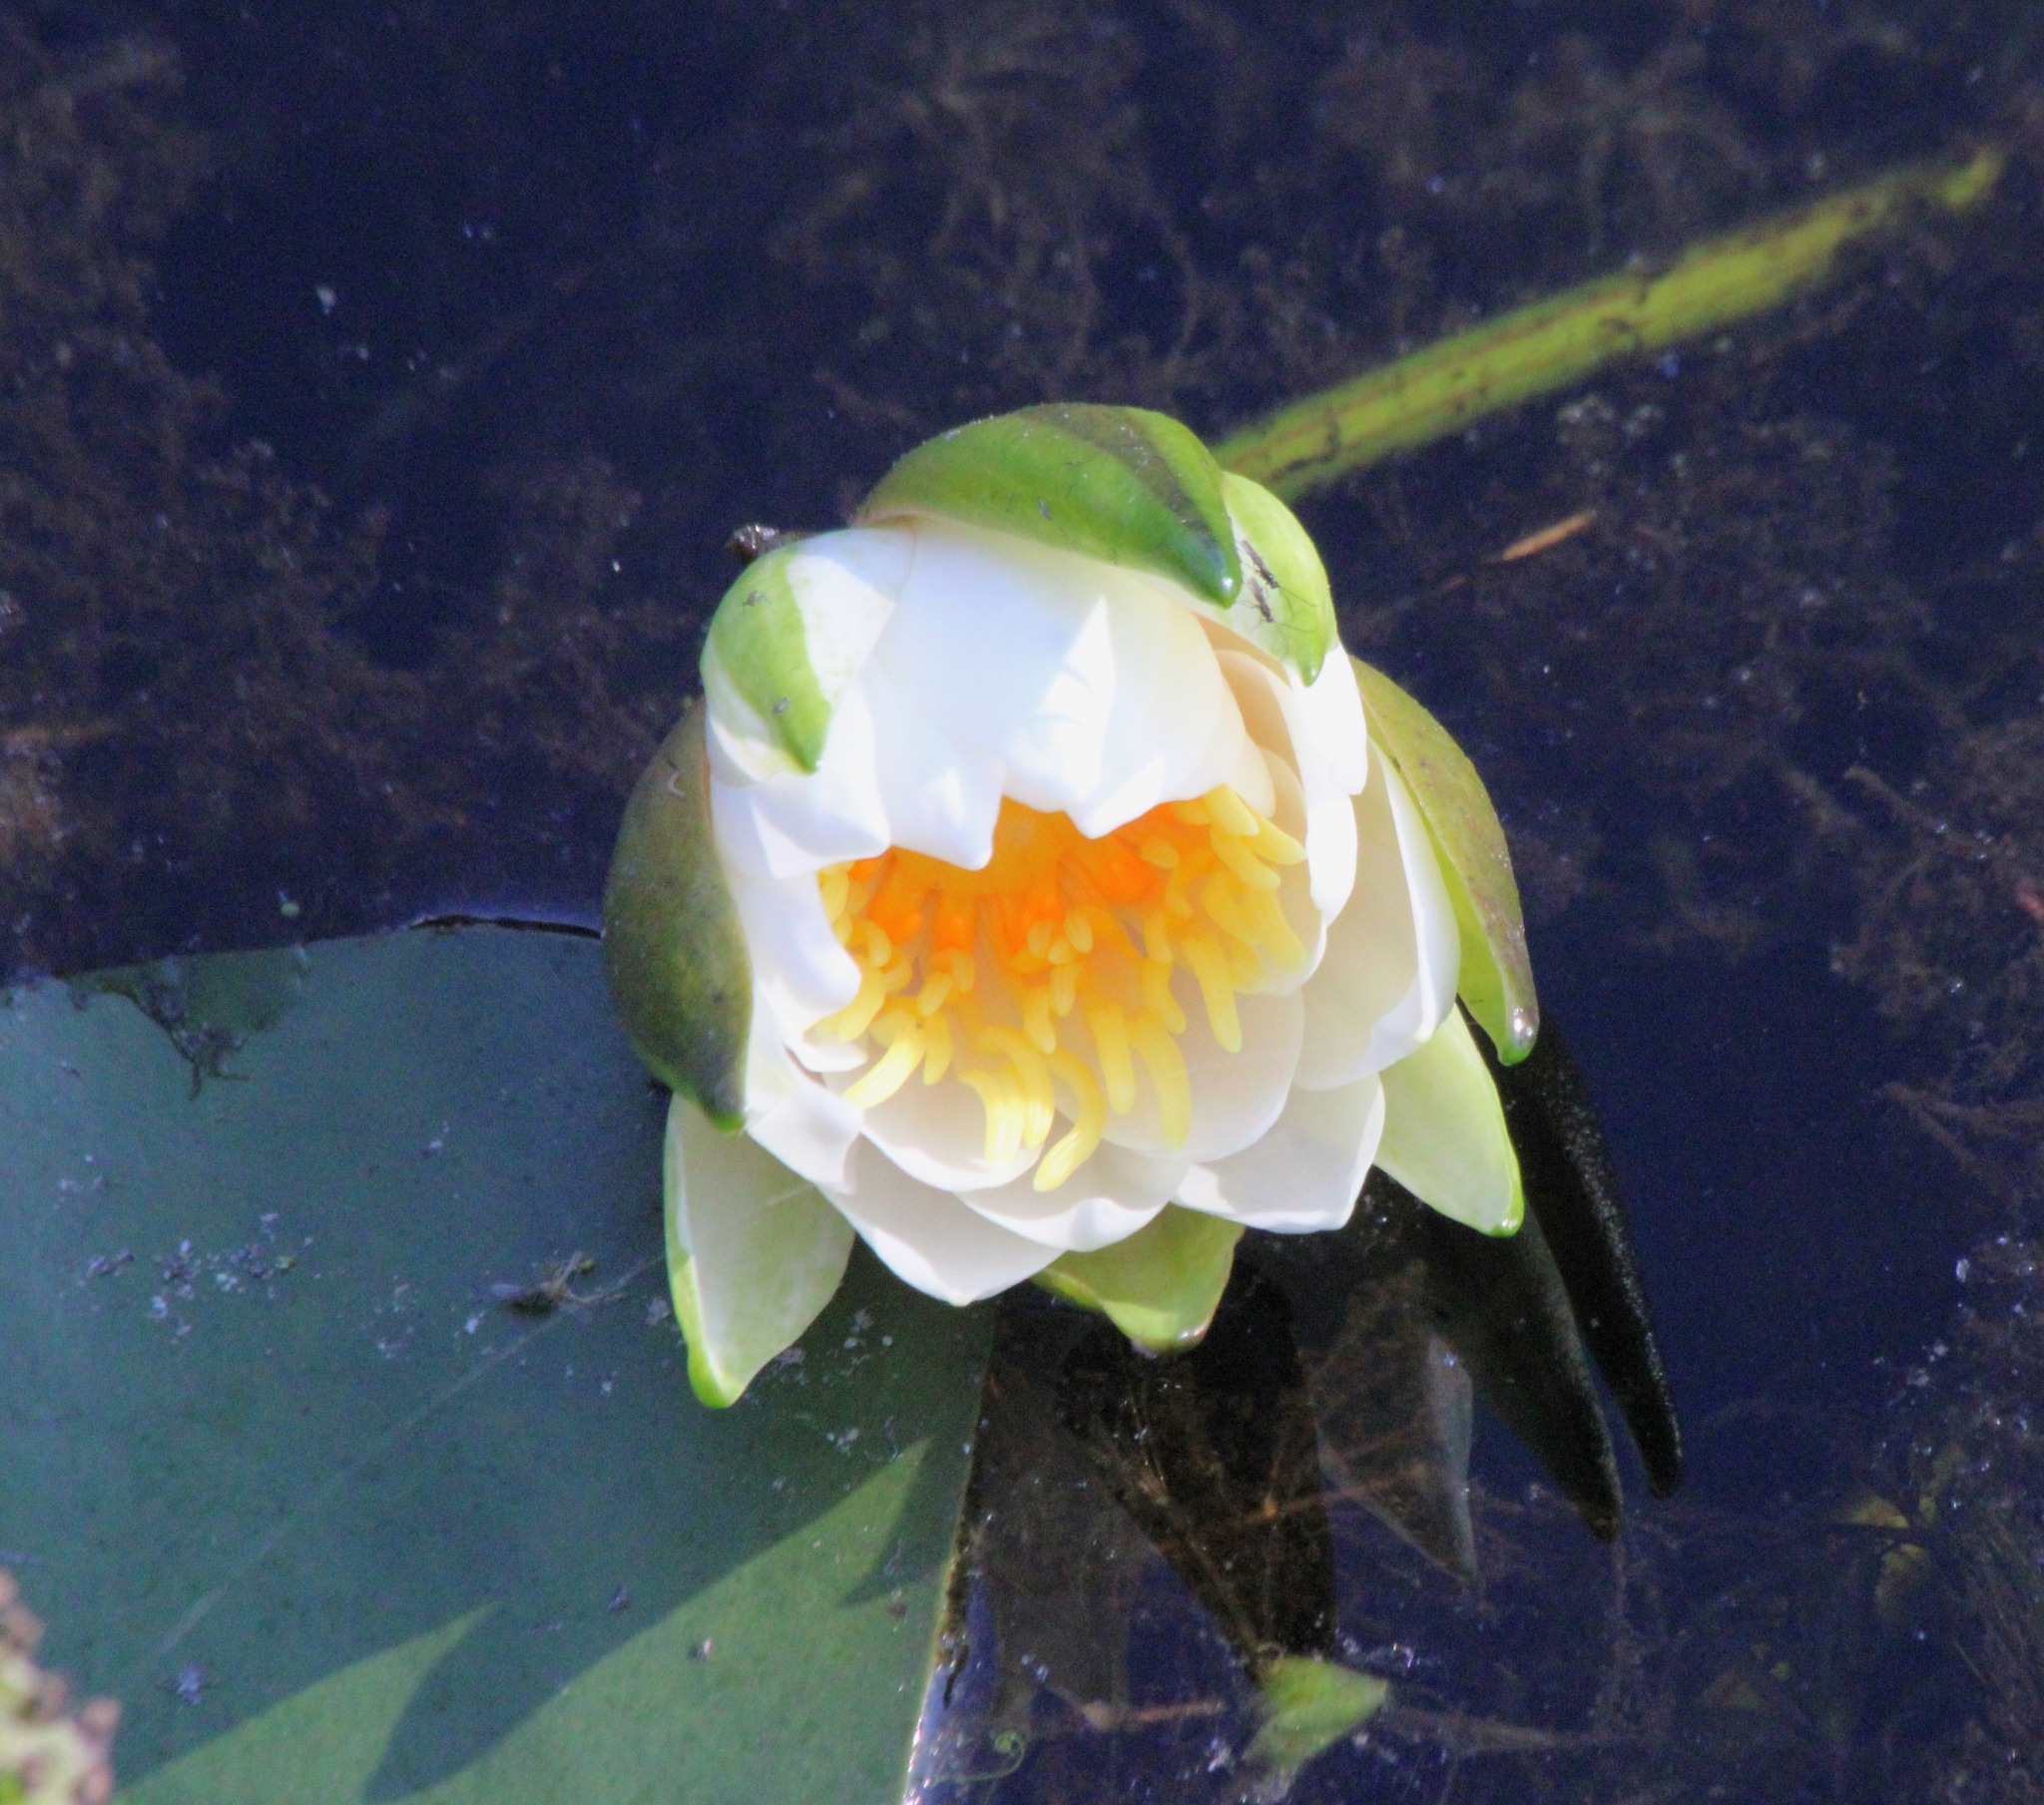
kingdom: Plantae
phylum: Tracheophyta
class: Magnoliopsida
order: Nymphaeales
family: Nymphaeaceae
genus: Nymphaea
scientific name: Nymphaea odorata
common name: Fragrant water-lily
